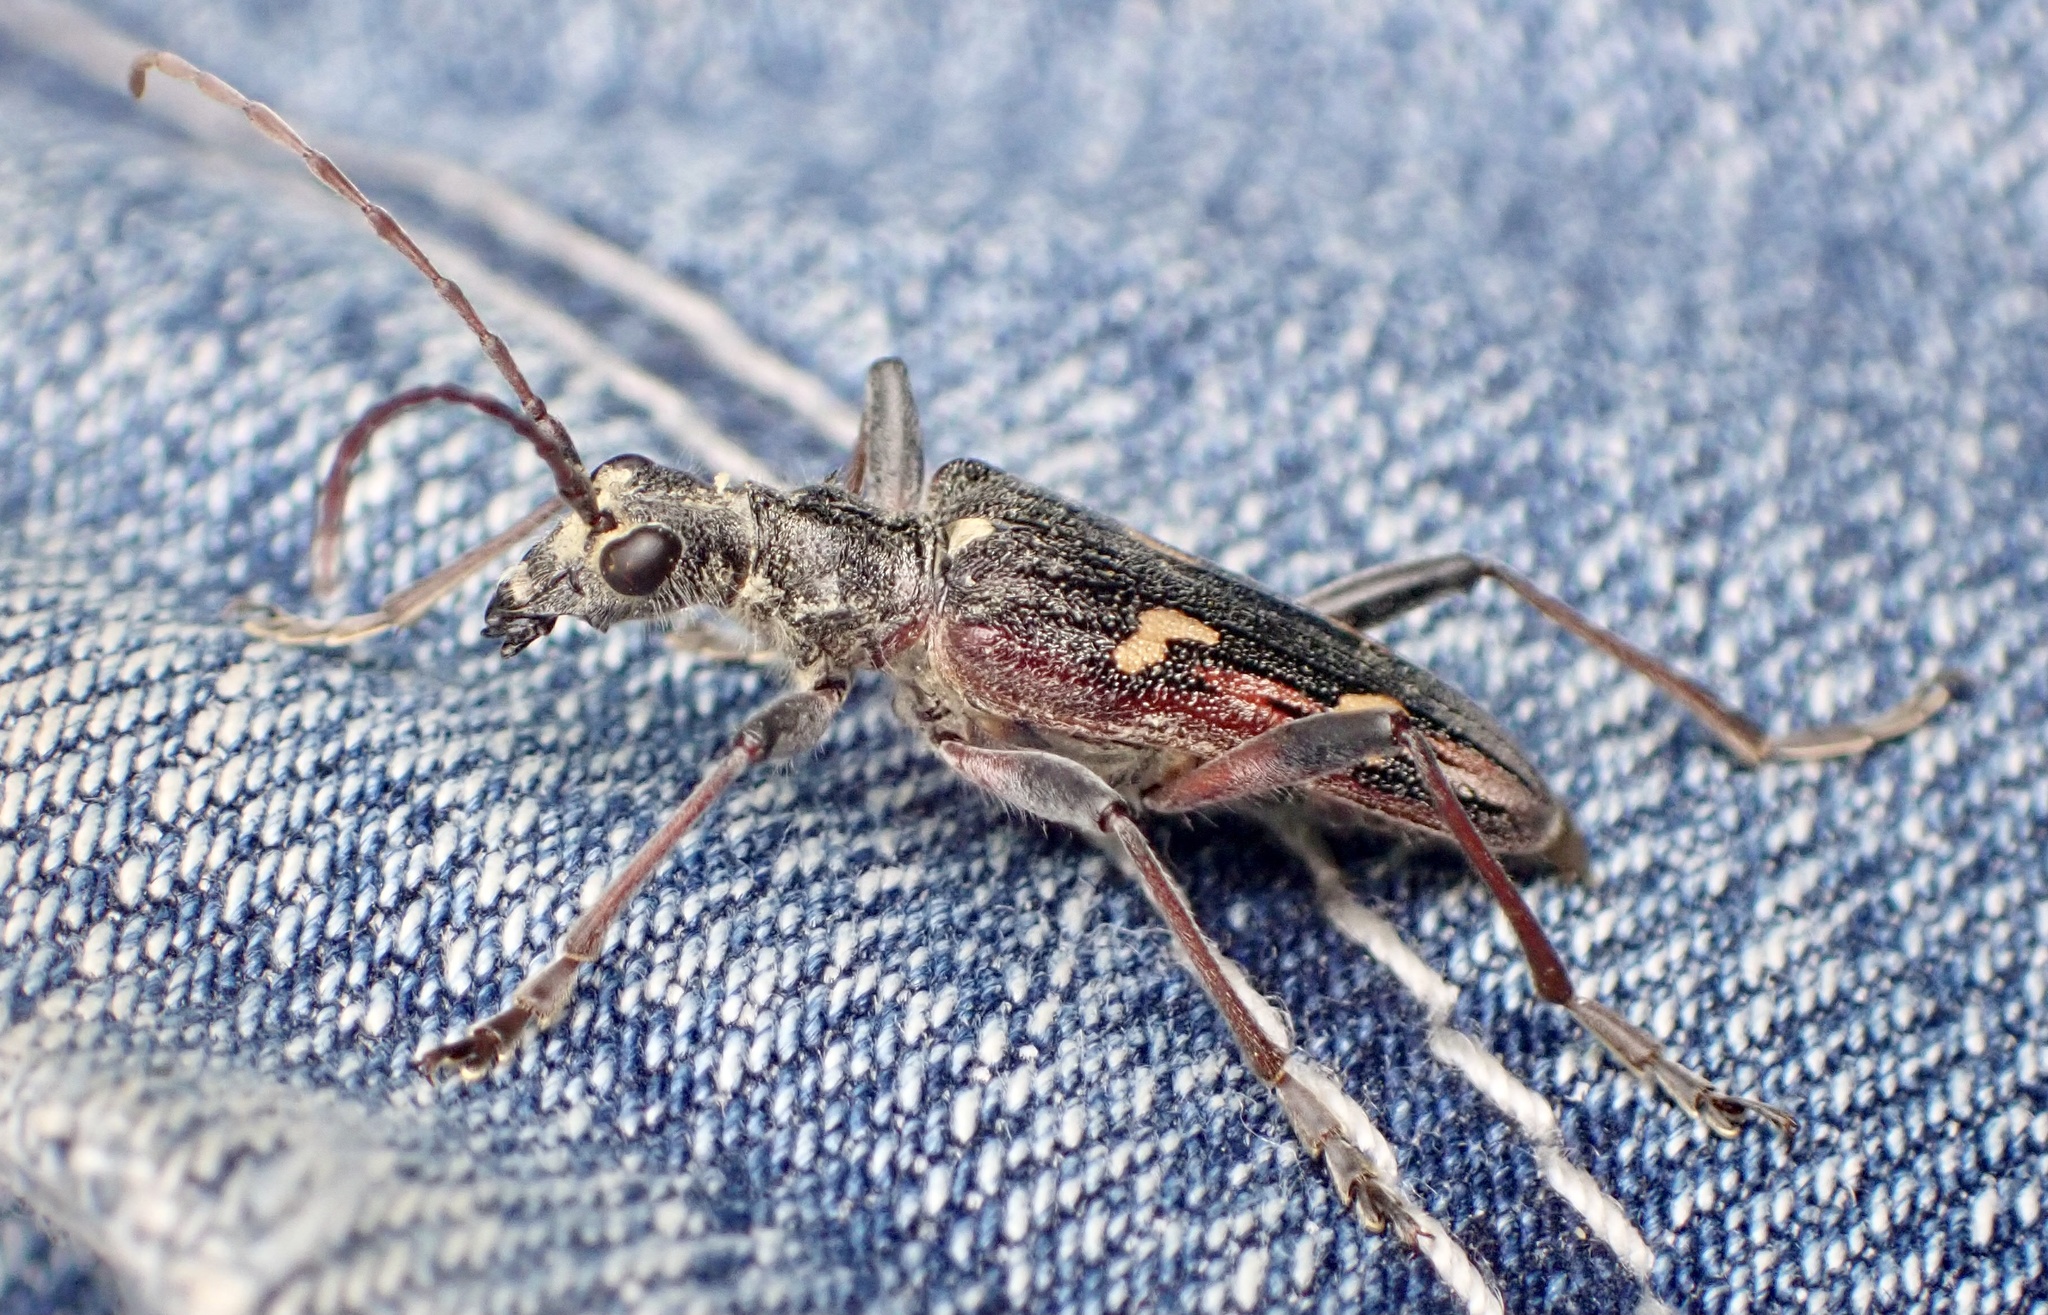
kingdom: Animalia
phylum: Arthropoda
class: Insecta
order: Coleoptera
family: Cerambycidae
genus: Rhagium
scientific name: Rhagium bifasciatum
